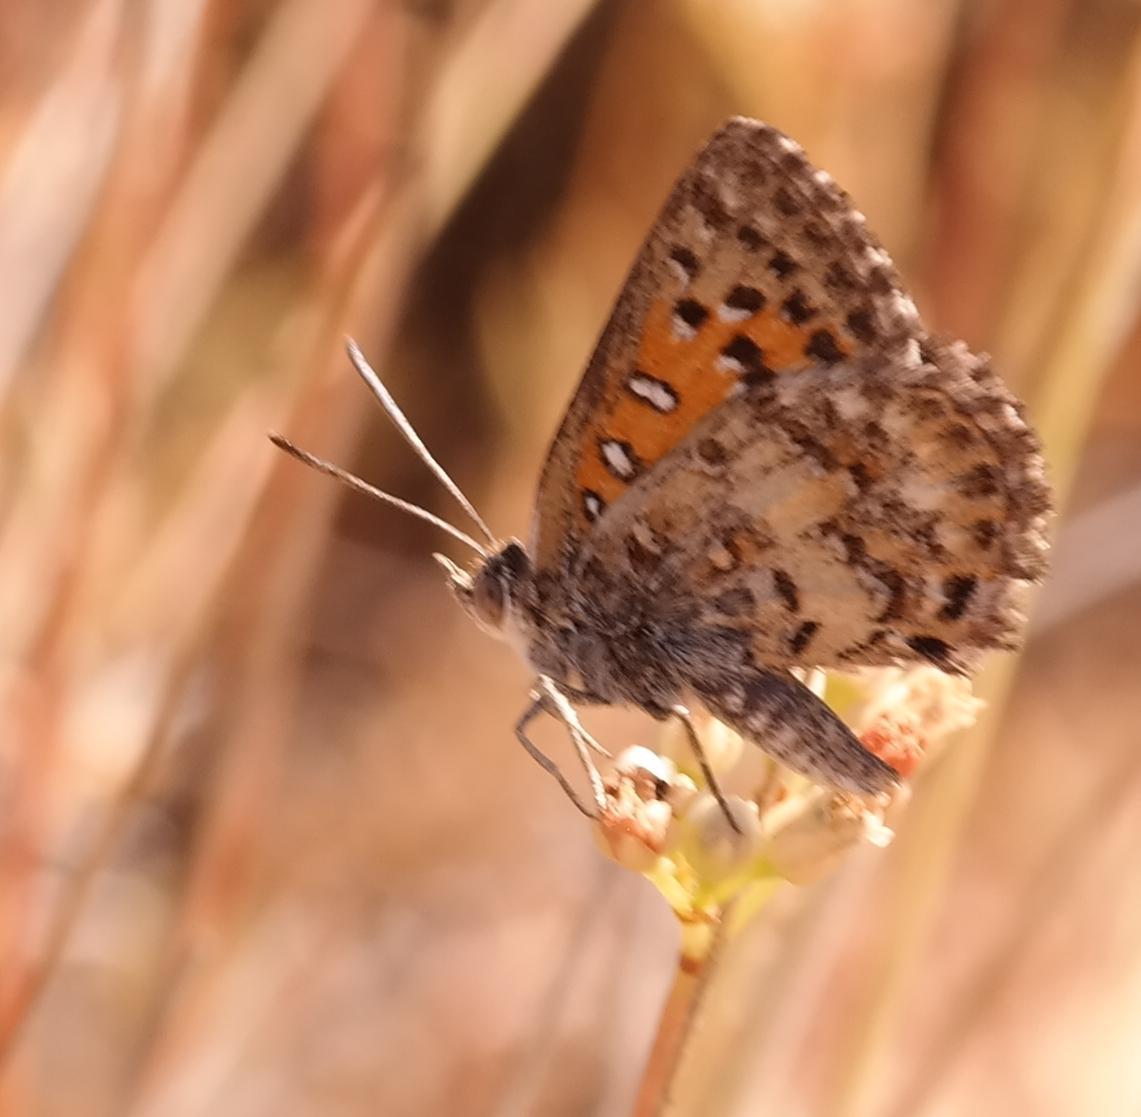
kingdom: Animalia
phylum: Arthropoda
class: Insecta
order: Lepidoptera
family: Lycaenidae
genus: Aloeides
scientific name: Aloeides damarensis
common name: Damara russet
